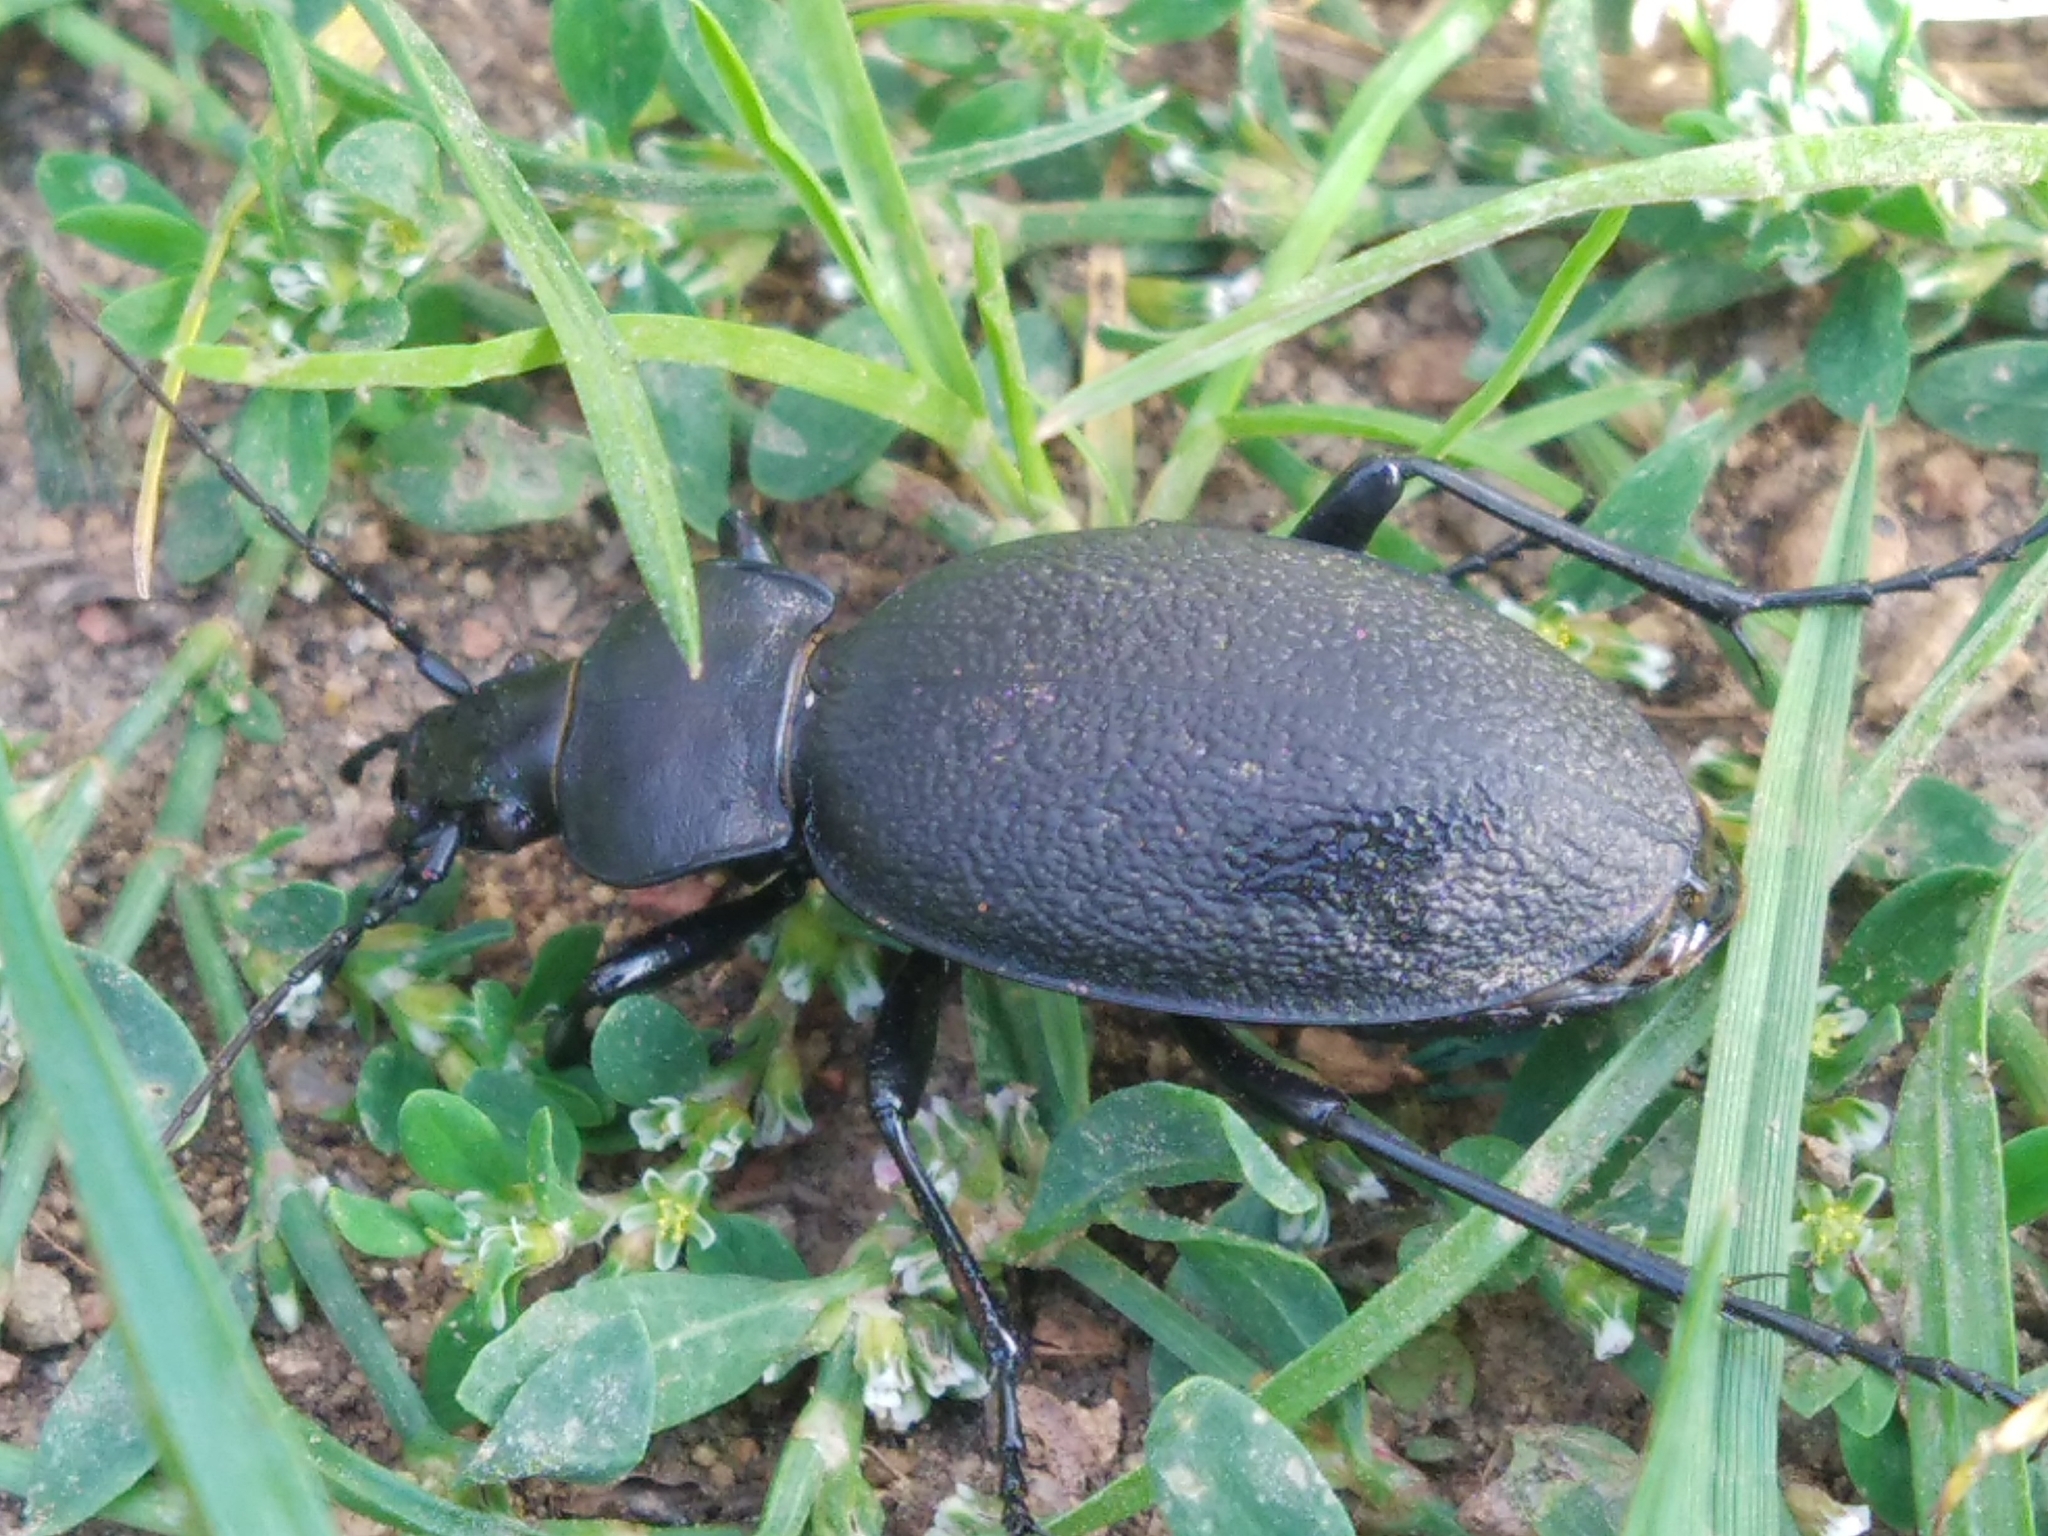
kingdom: Animalia
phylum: Arthropoda
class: Insecta
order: Coleoptera
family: Carabidae
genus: Carabus
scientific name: Carabus coriaceus
